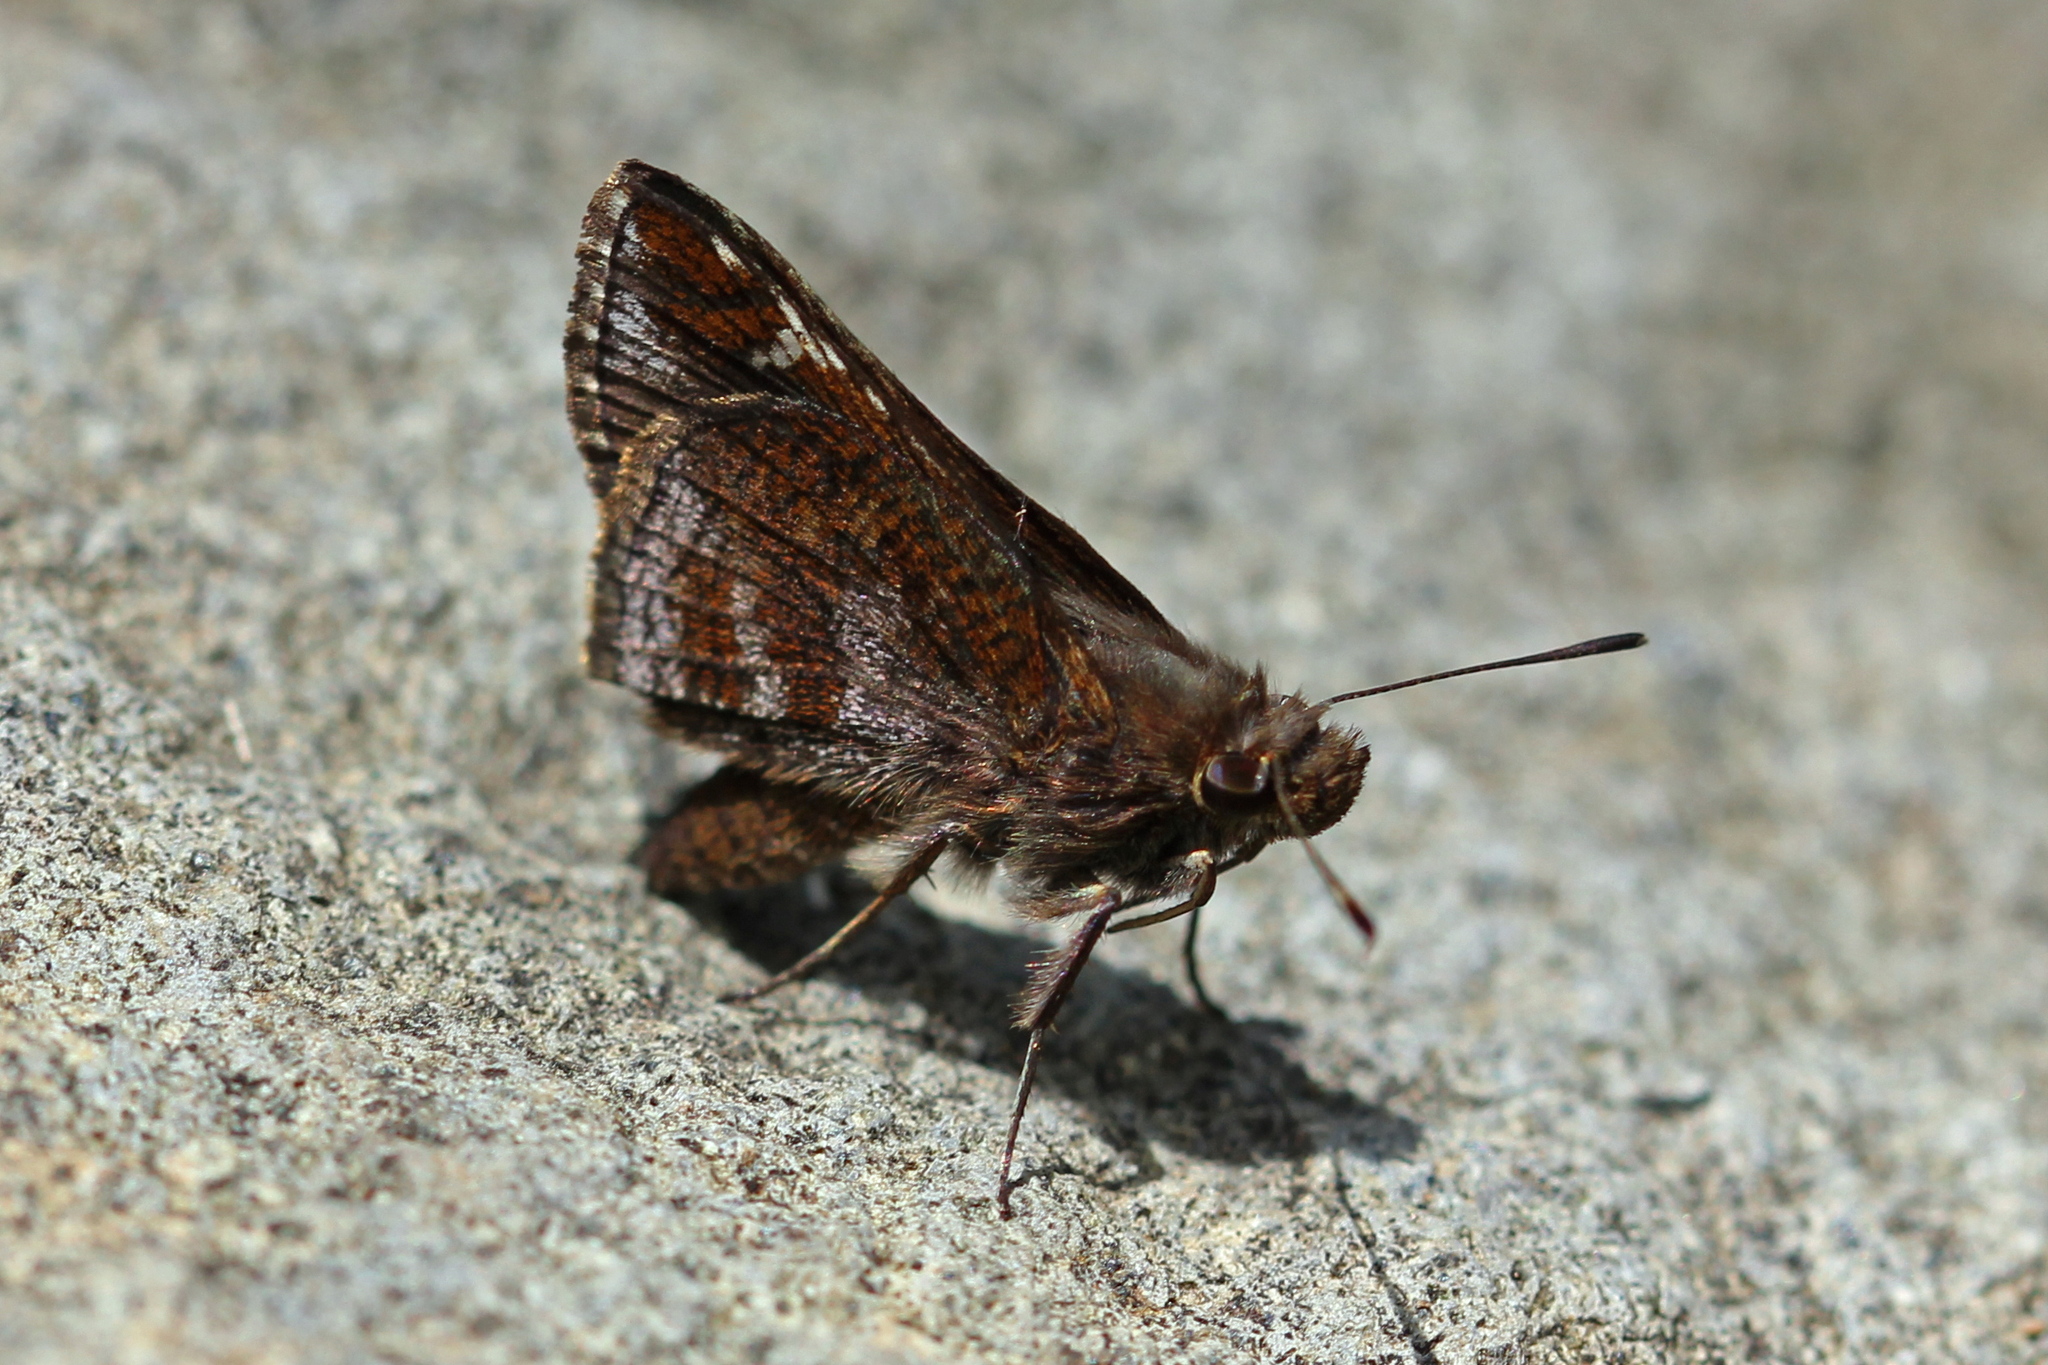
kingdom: Animalia
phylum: Arthropoda
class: Insecta
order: Lepidoptera
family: Hesperiidae
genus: Lerema
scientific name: Lerema accius
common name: Clouded skipper
